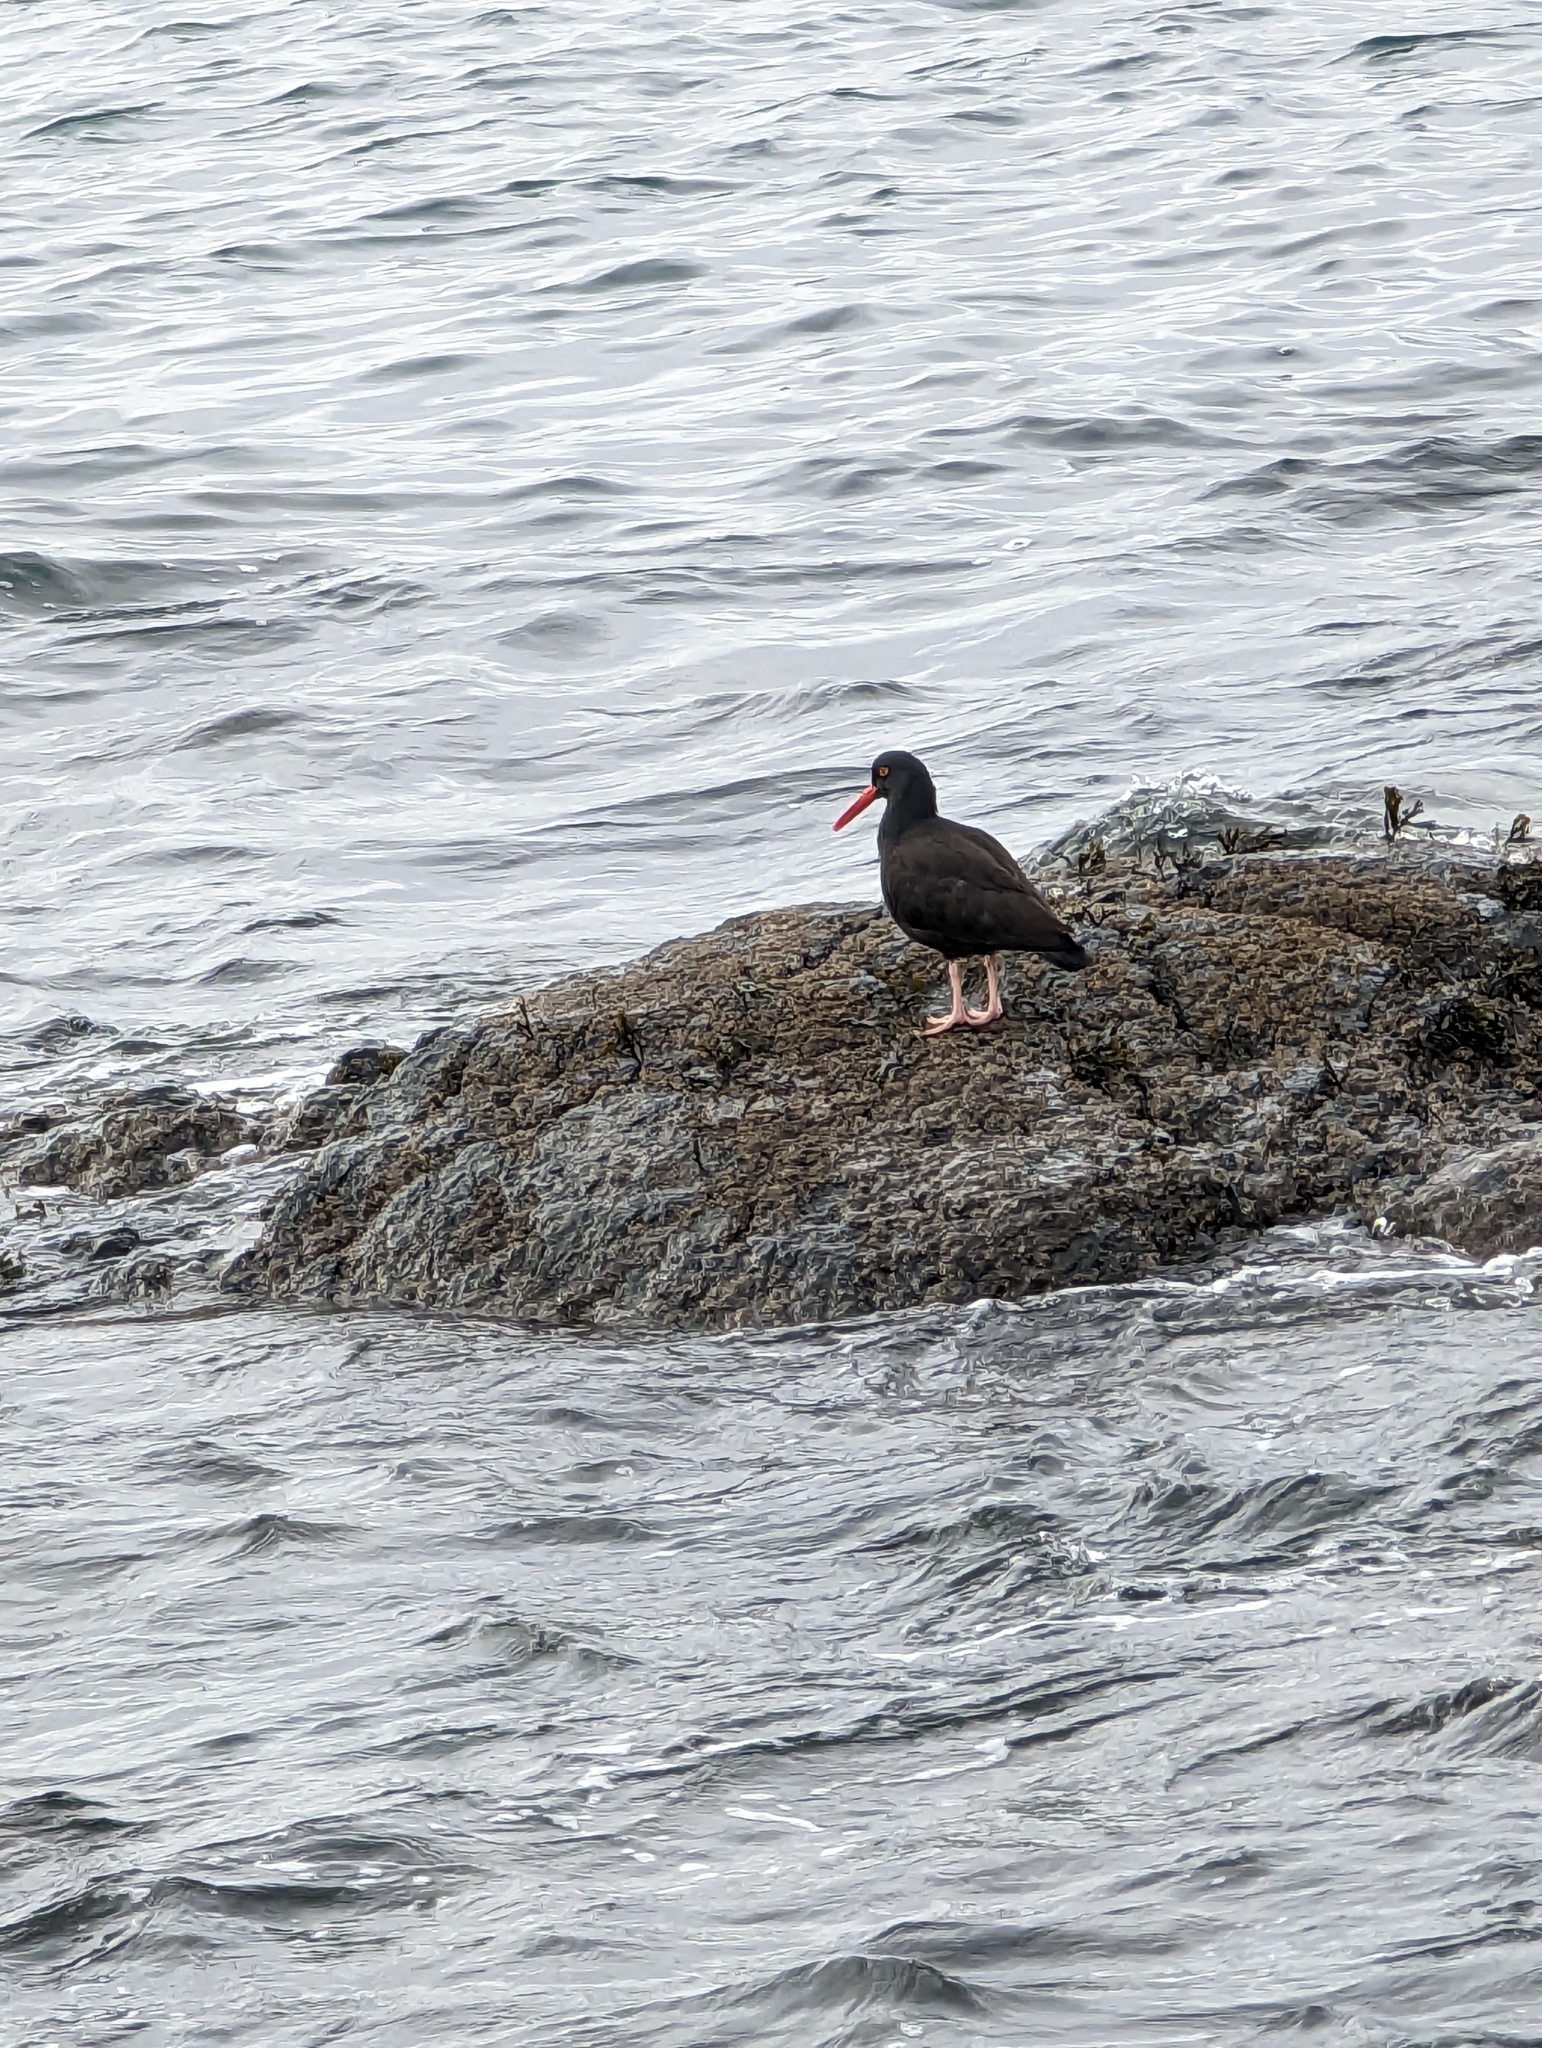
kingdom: Animalia
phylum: Chordata
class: Aves
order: Charadriiformes
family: Haematopodidae
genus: Haematopus
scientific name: Haematopus bachmani
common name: Black oystercatcher
